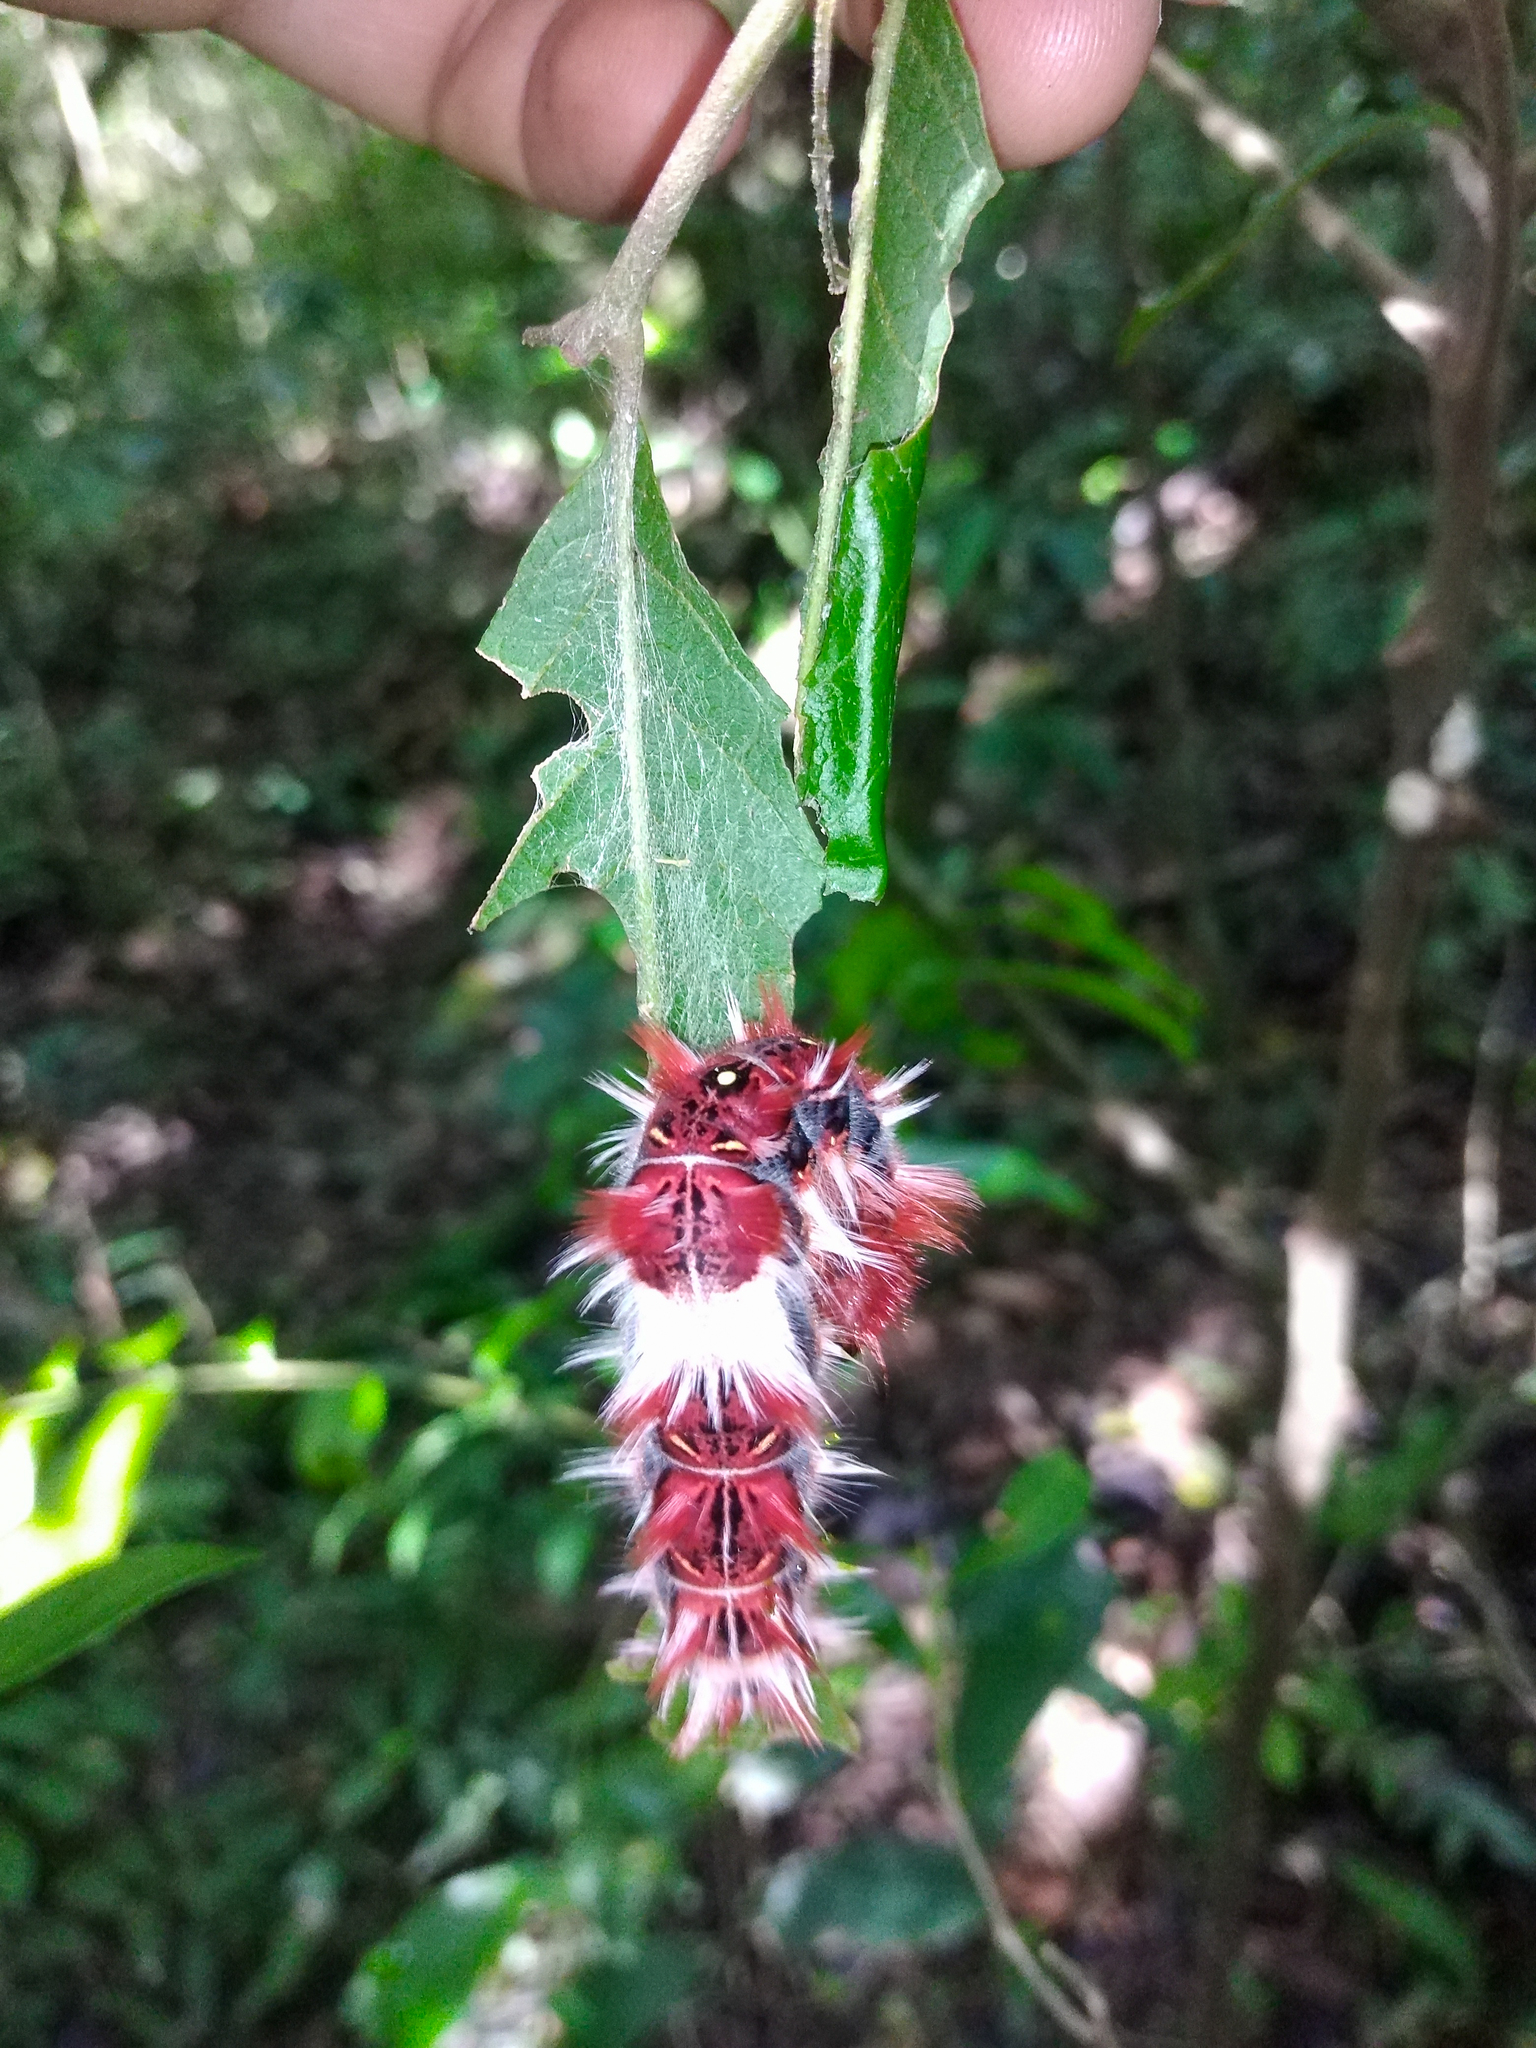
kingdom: Animalia
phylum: Arthropoda
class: Insecta
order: Lepidoptera
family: Nymphalidae
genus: Morpho
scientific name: Morpho epistrophus
